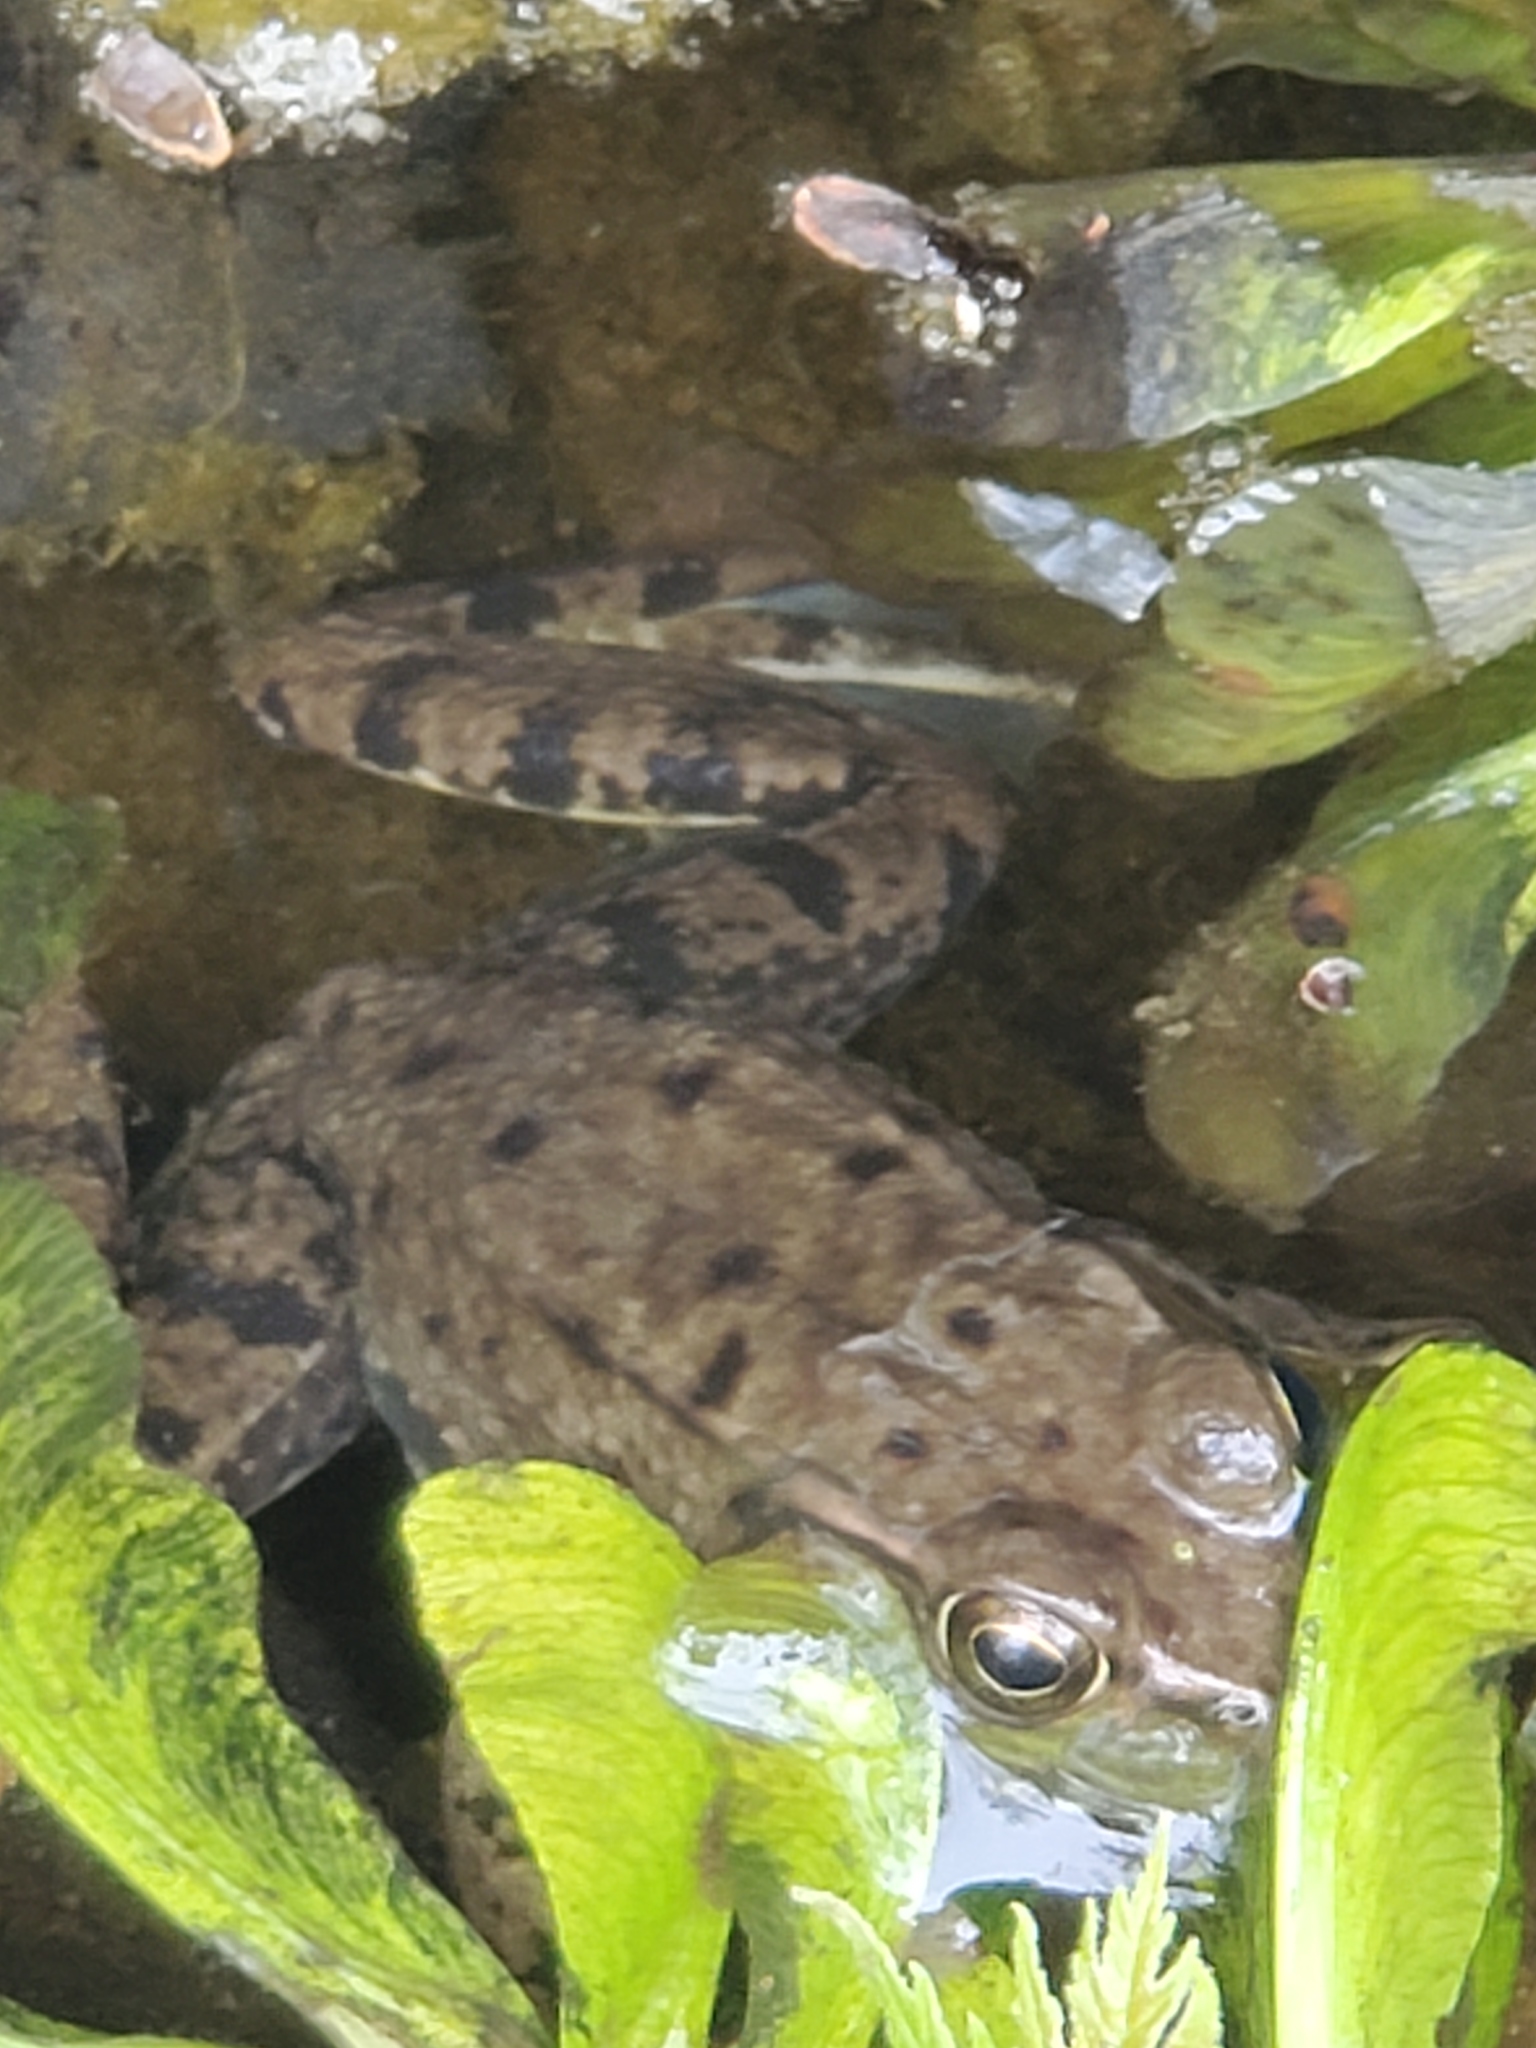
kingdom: Animalia
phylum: Chordata
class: Amphibia
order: Anura
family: Ranidae
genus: Lithobates
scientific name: Lithobates clamitans
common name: Green frog
